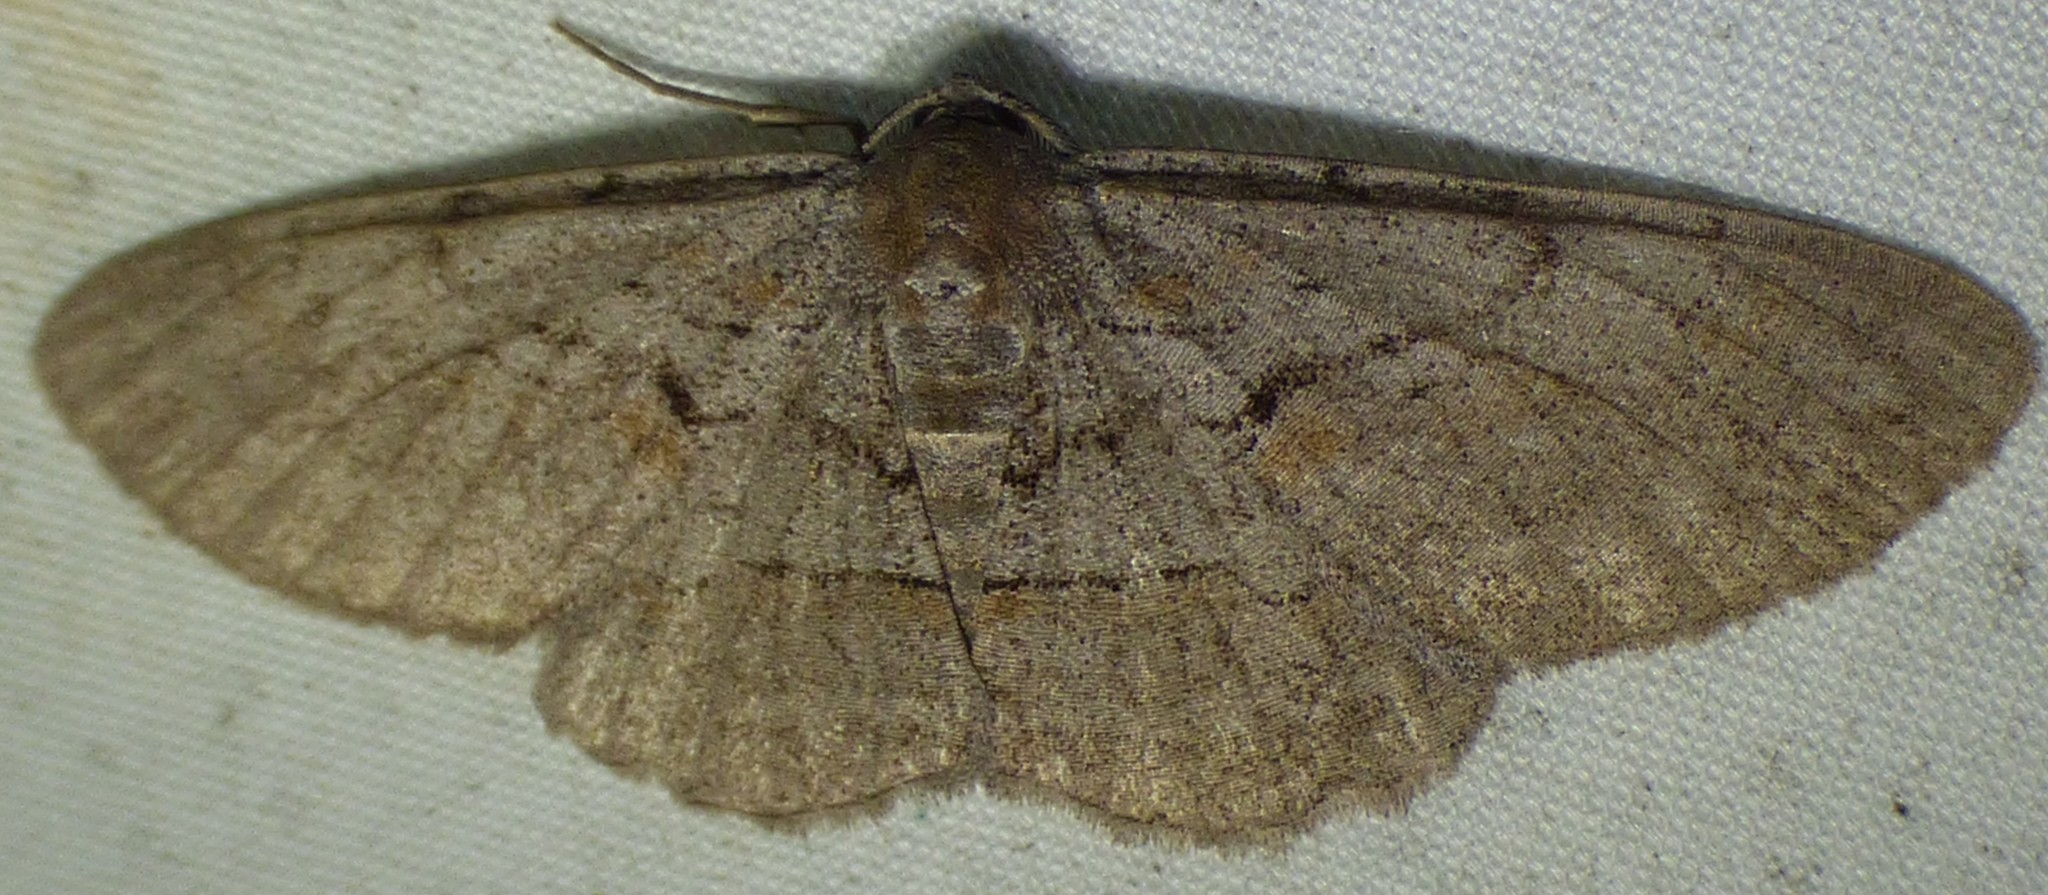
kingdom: Animalia
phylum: Arthropoda
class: Insecta
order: Lepidoptera
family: Geometridae
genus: Iridopsis
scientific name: Iridopsis vellivolata
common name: Large purplish gray
